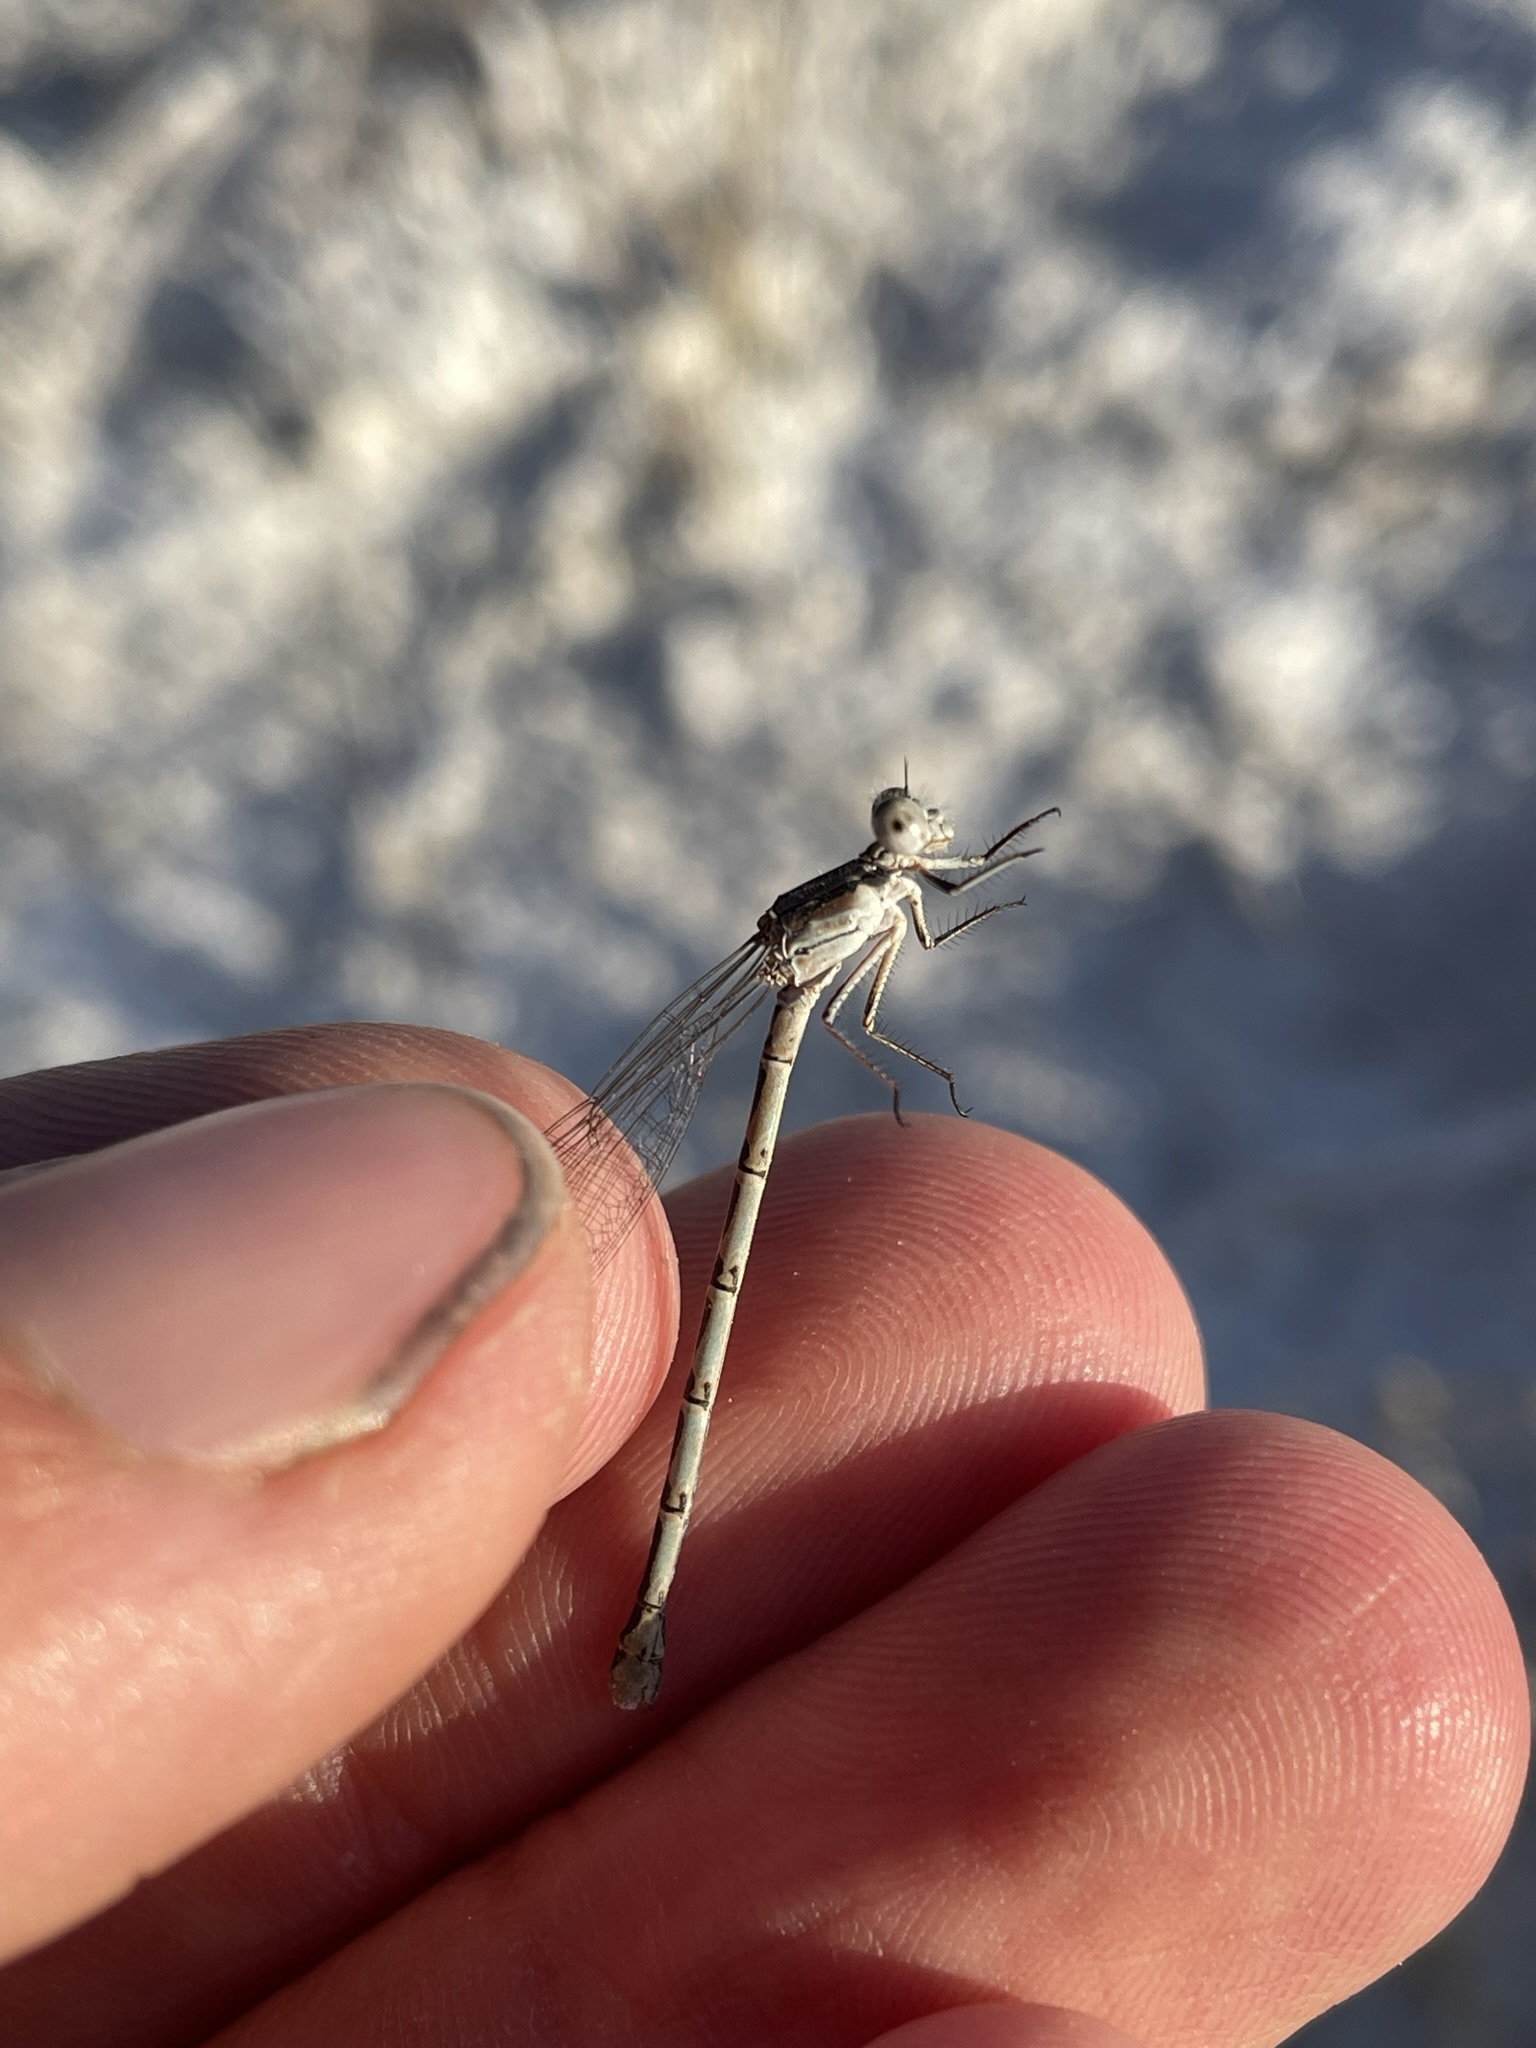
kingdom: Animalia
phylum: Arthropoda
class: Insecta
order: Odonata
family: Coenagrionidae
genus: Argia
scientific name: Argia alberta
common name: Paiute dancer
